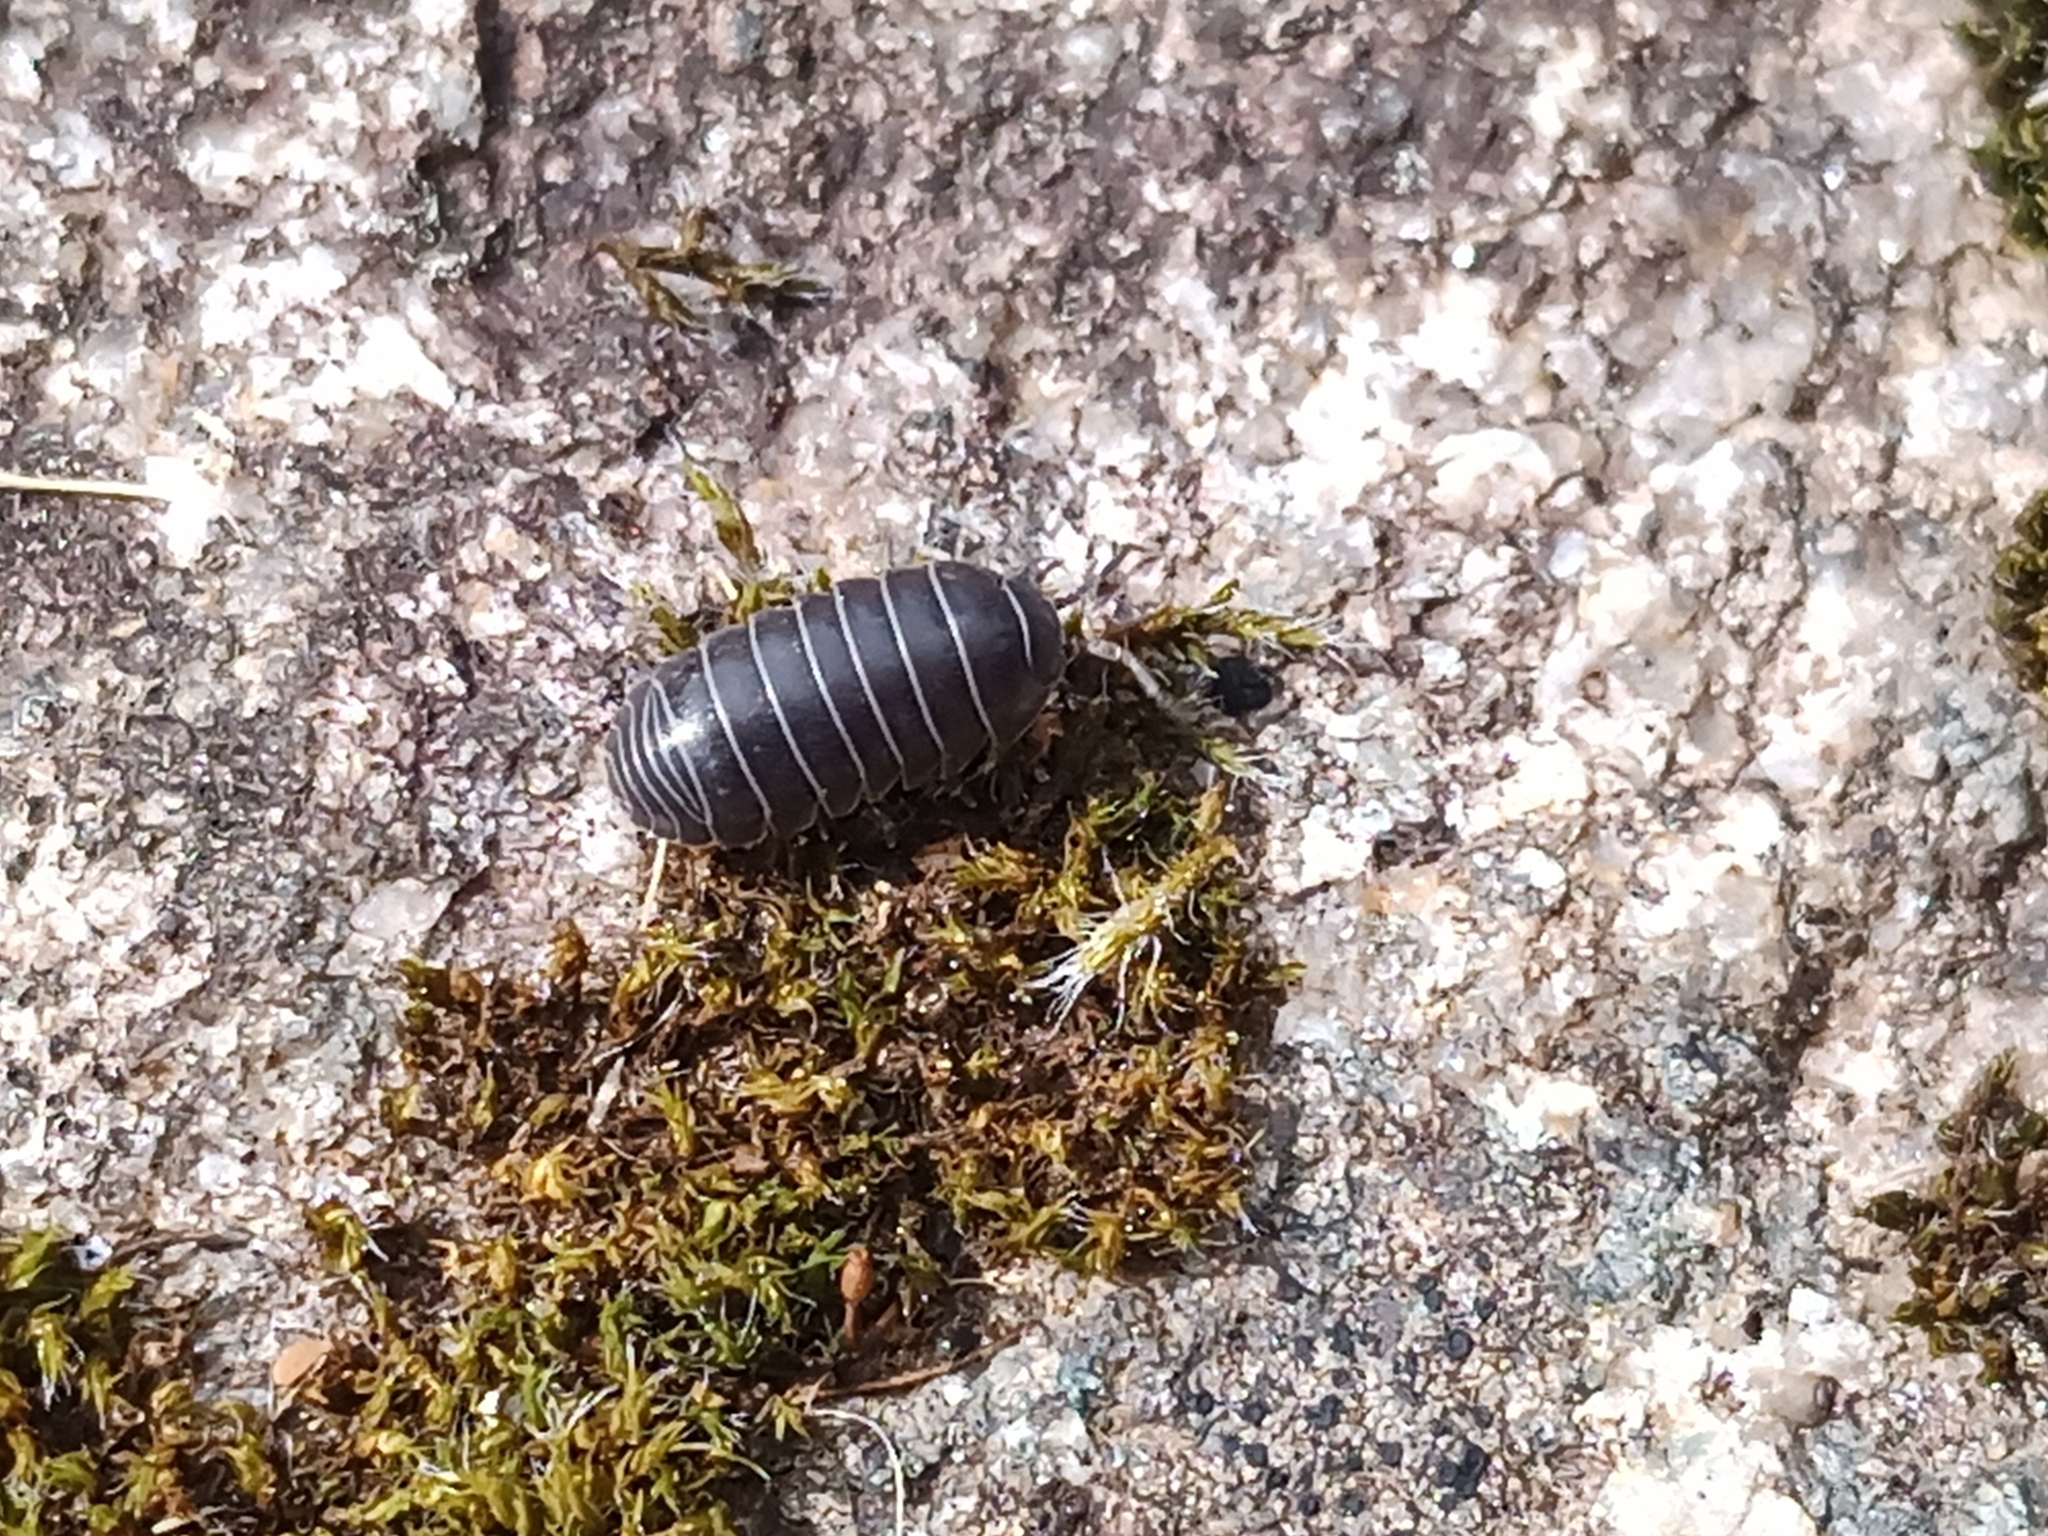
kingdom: Animalia
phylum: Arthropoda
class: Malacostraca
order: Isopoda
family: Armadillidiidae
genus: Armadillidium
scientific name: Armadillidium vulgare
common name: Common pill woodlouse
